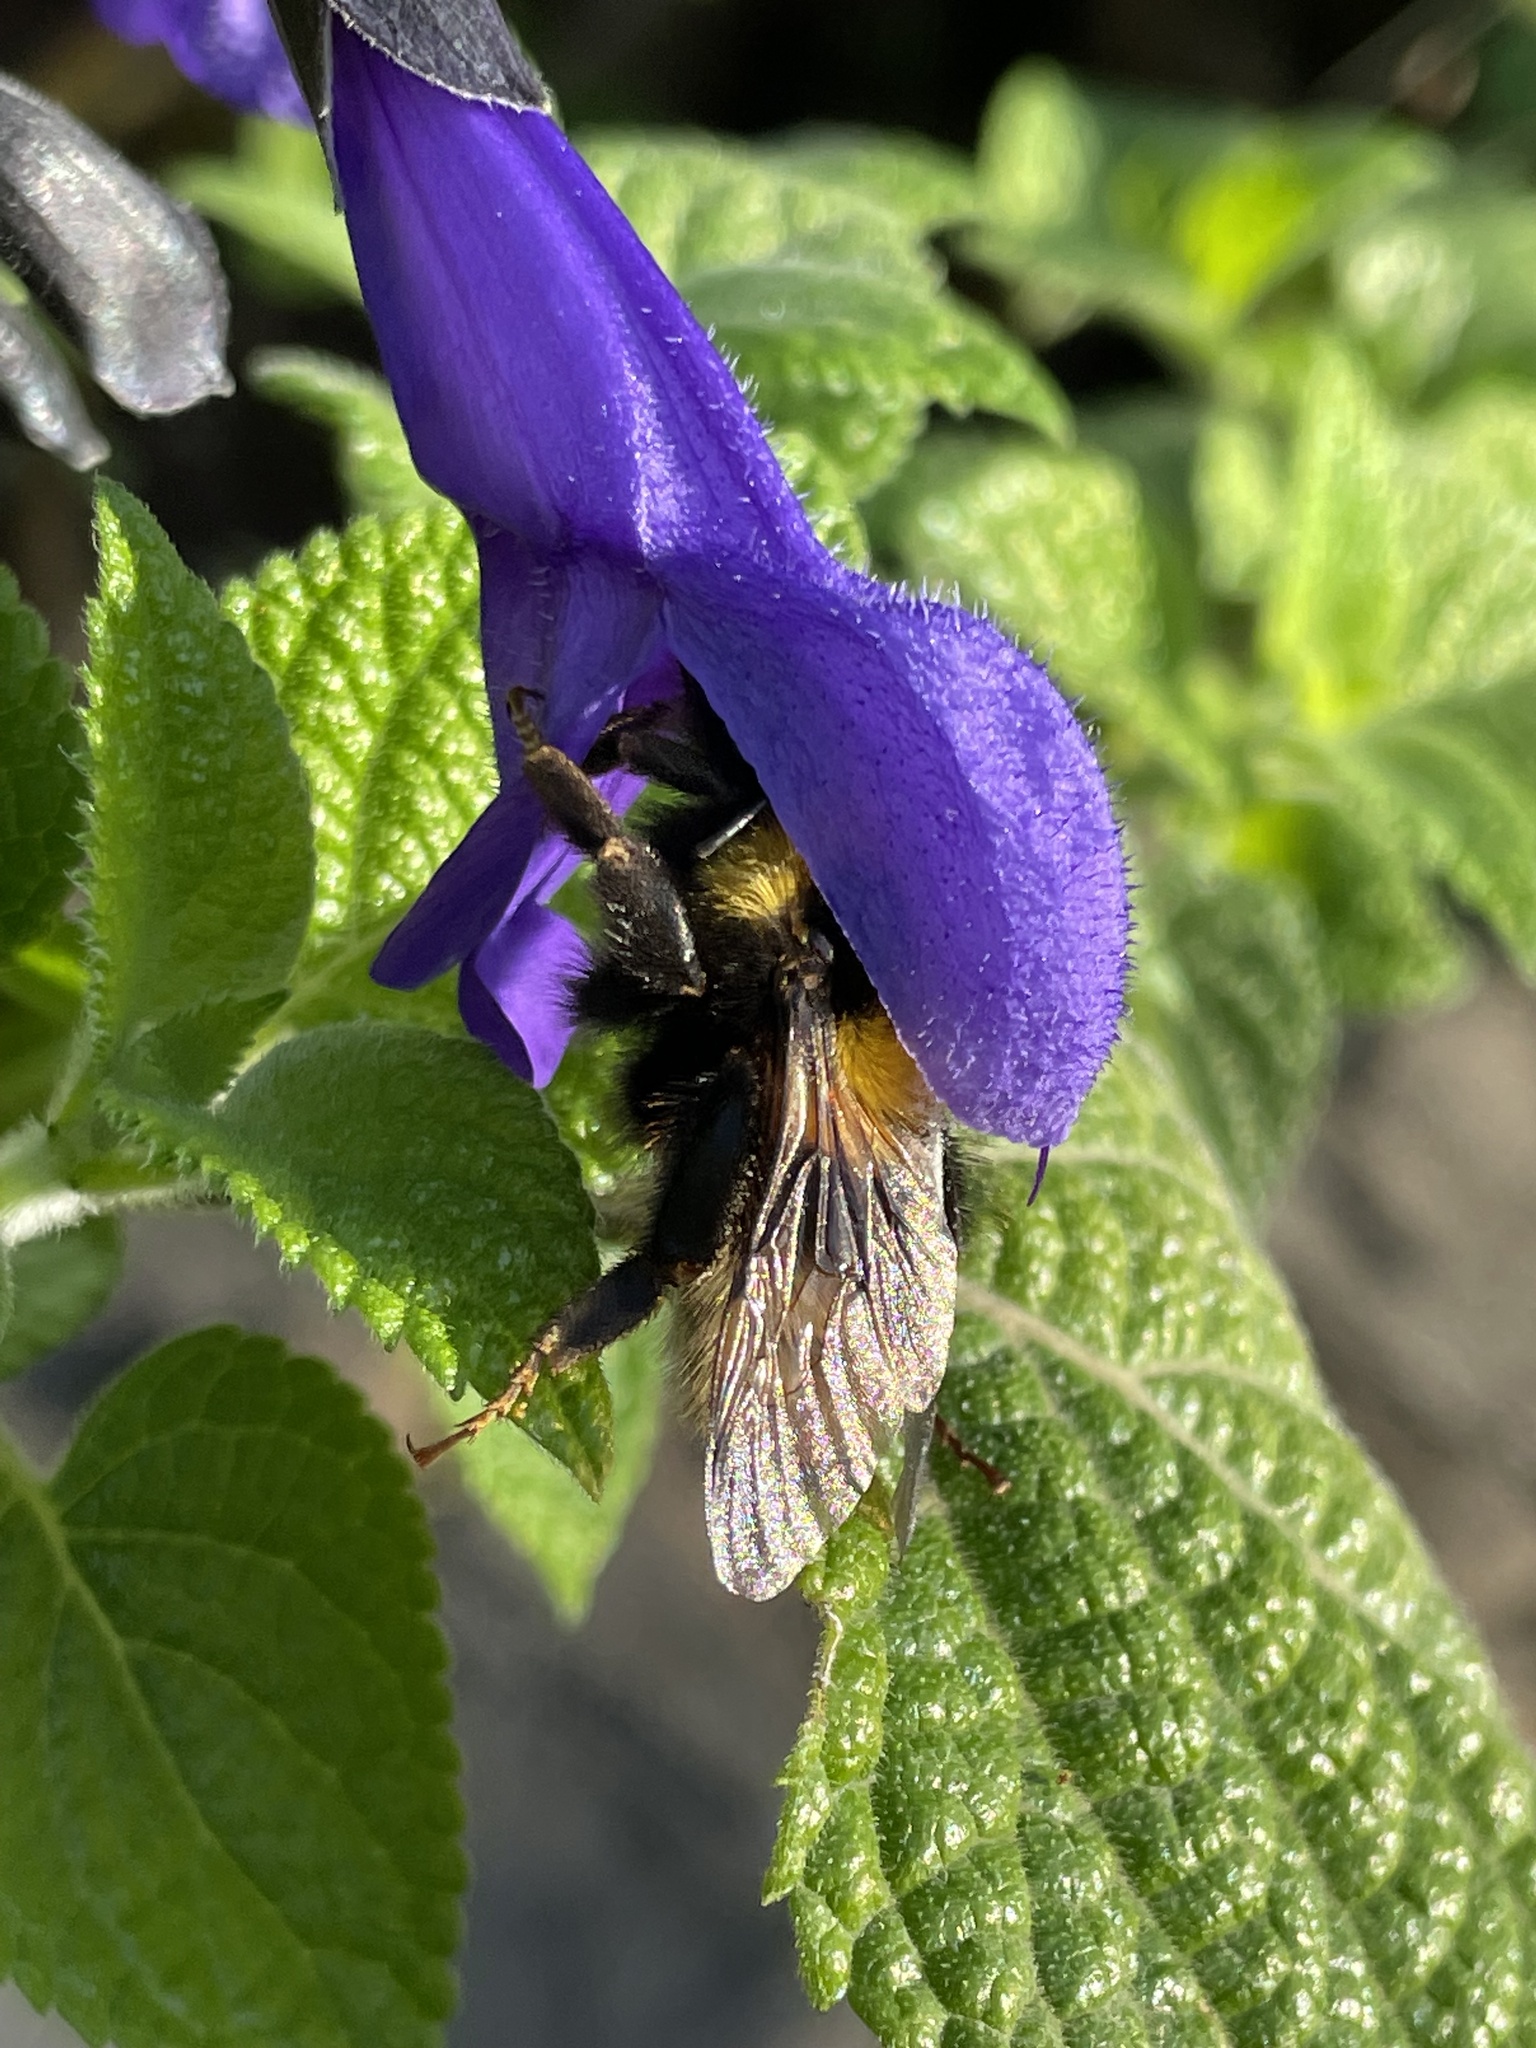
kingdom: Animalia
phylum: Arthropoda
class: Insecta
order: Hymenoptera
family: Apidae
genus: Bombus
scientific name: Bombus ruderatus
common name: Large garden bumblebee
